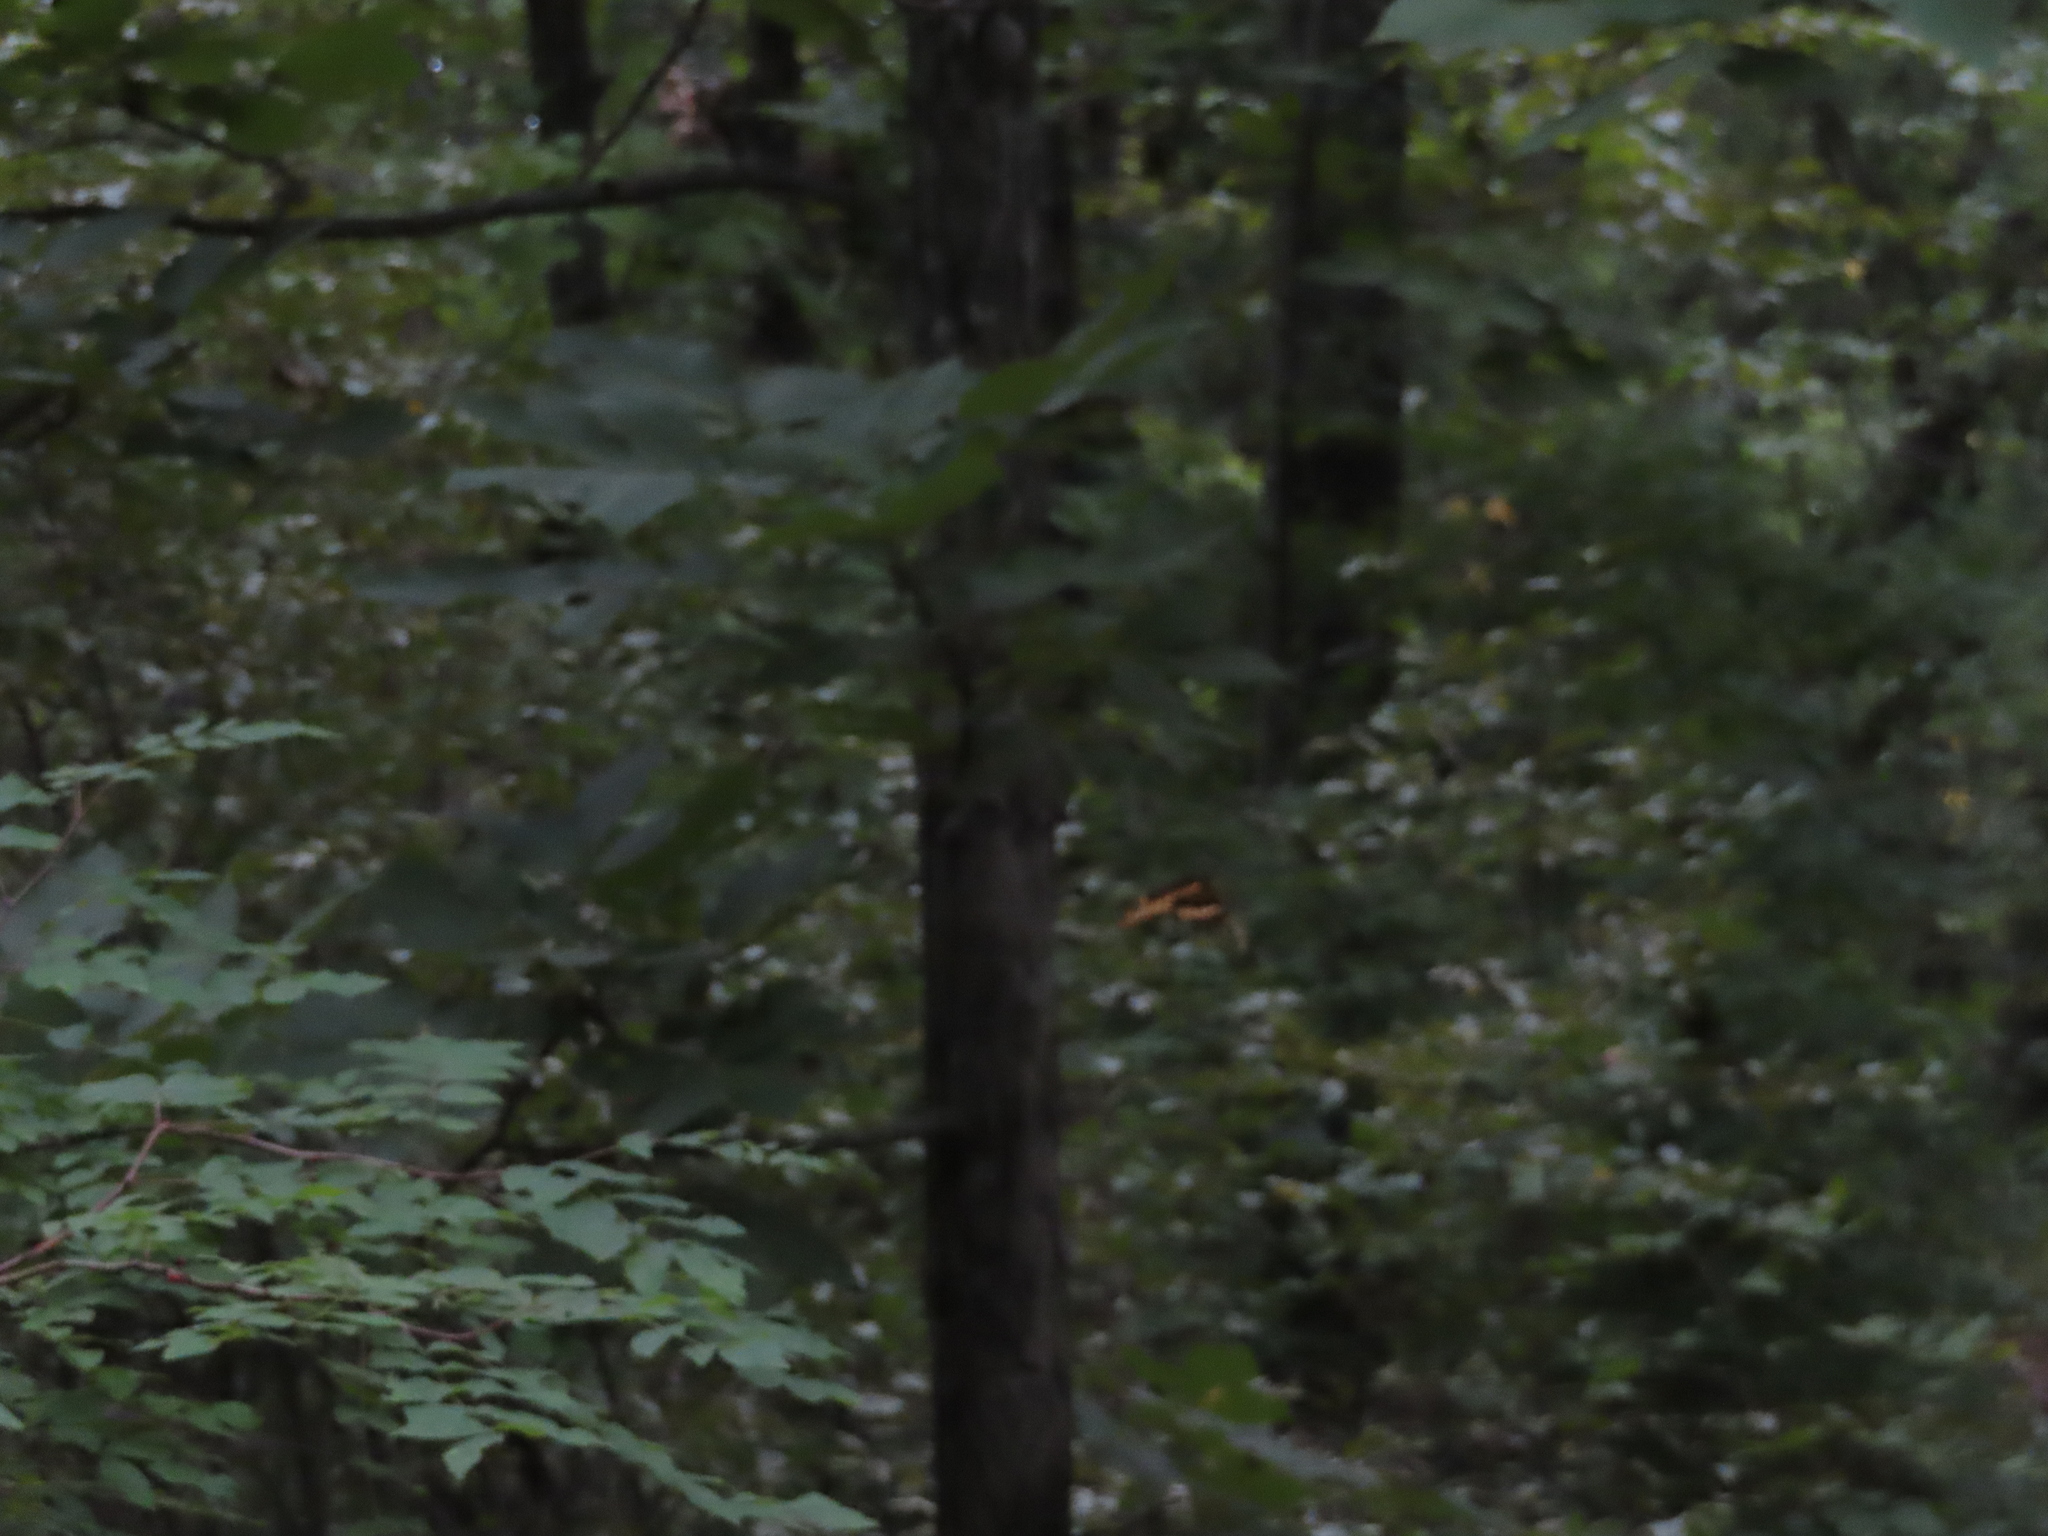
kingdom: Animalia
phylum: Arthropoda
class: Insecta
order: Lepidoptera
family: Papilionidae
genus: Papilio
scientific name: Papilio cresphontes
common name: Giant swallowtail
